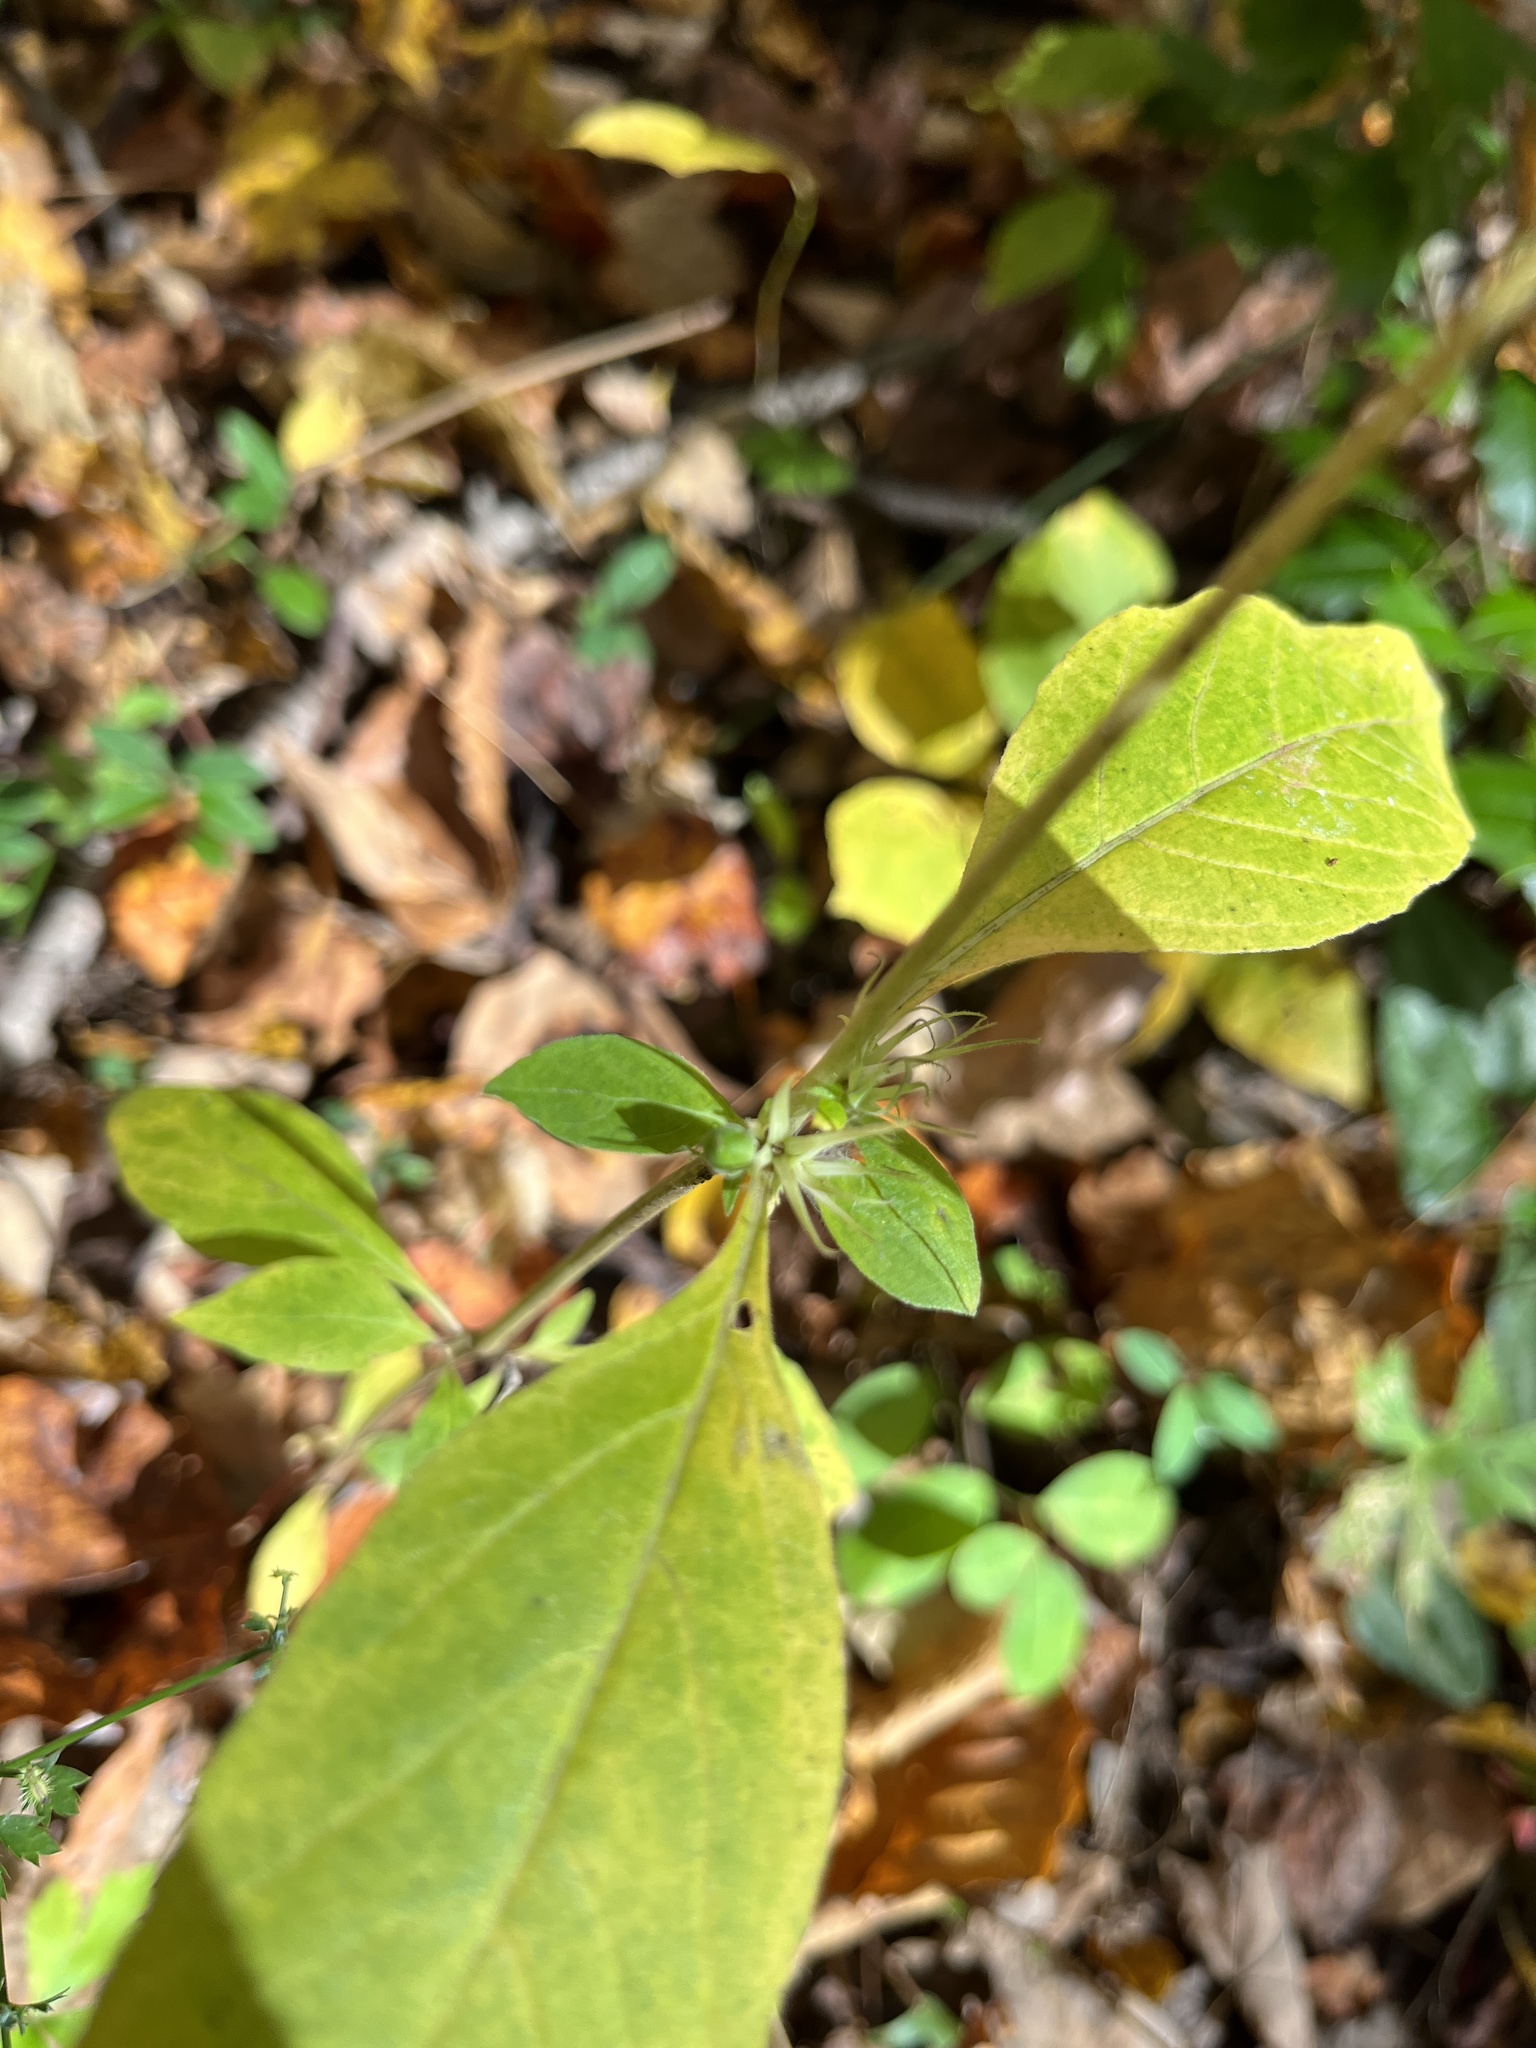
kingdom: Plantae
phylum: Tracheophyta
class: Magnoliopsida
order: Lamiales
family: Acanthaceae
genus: Ruellia
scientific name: Ruellia caroliniensis
